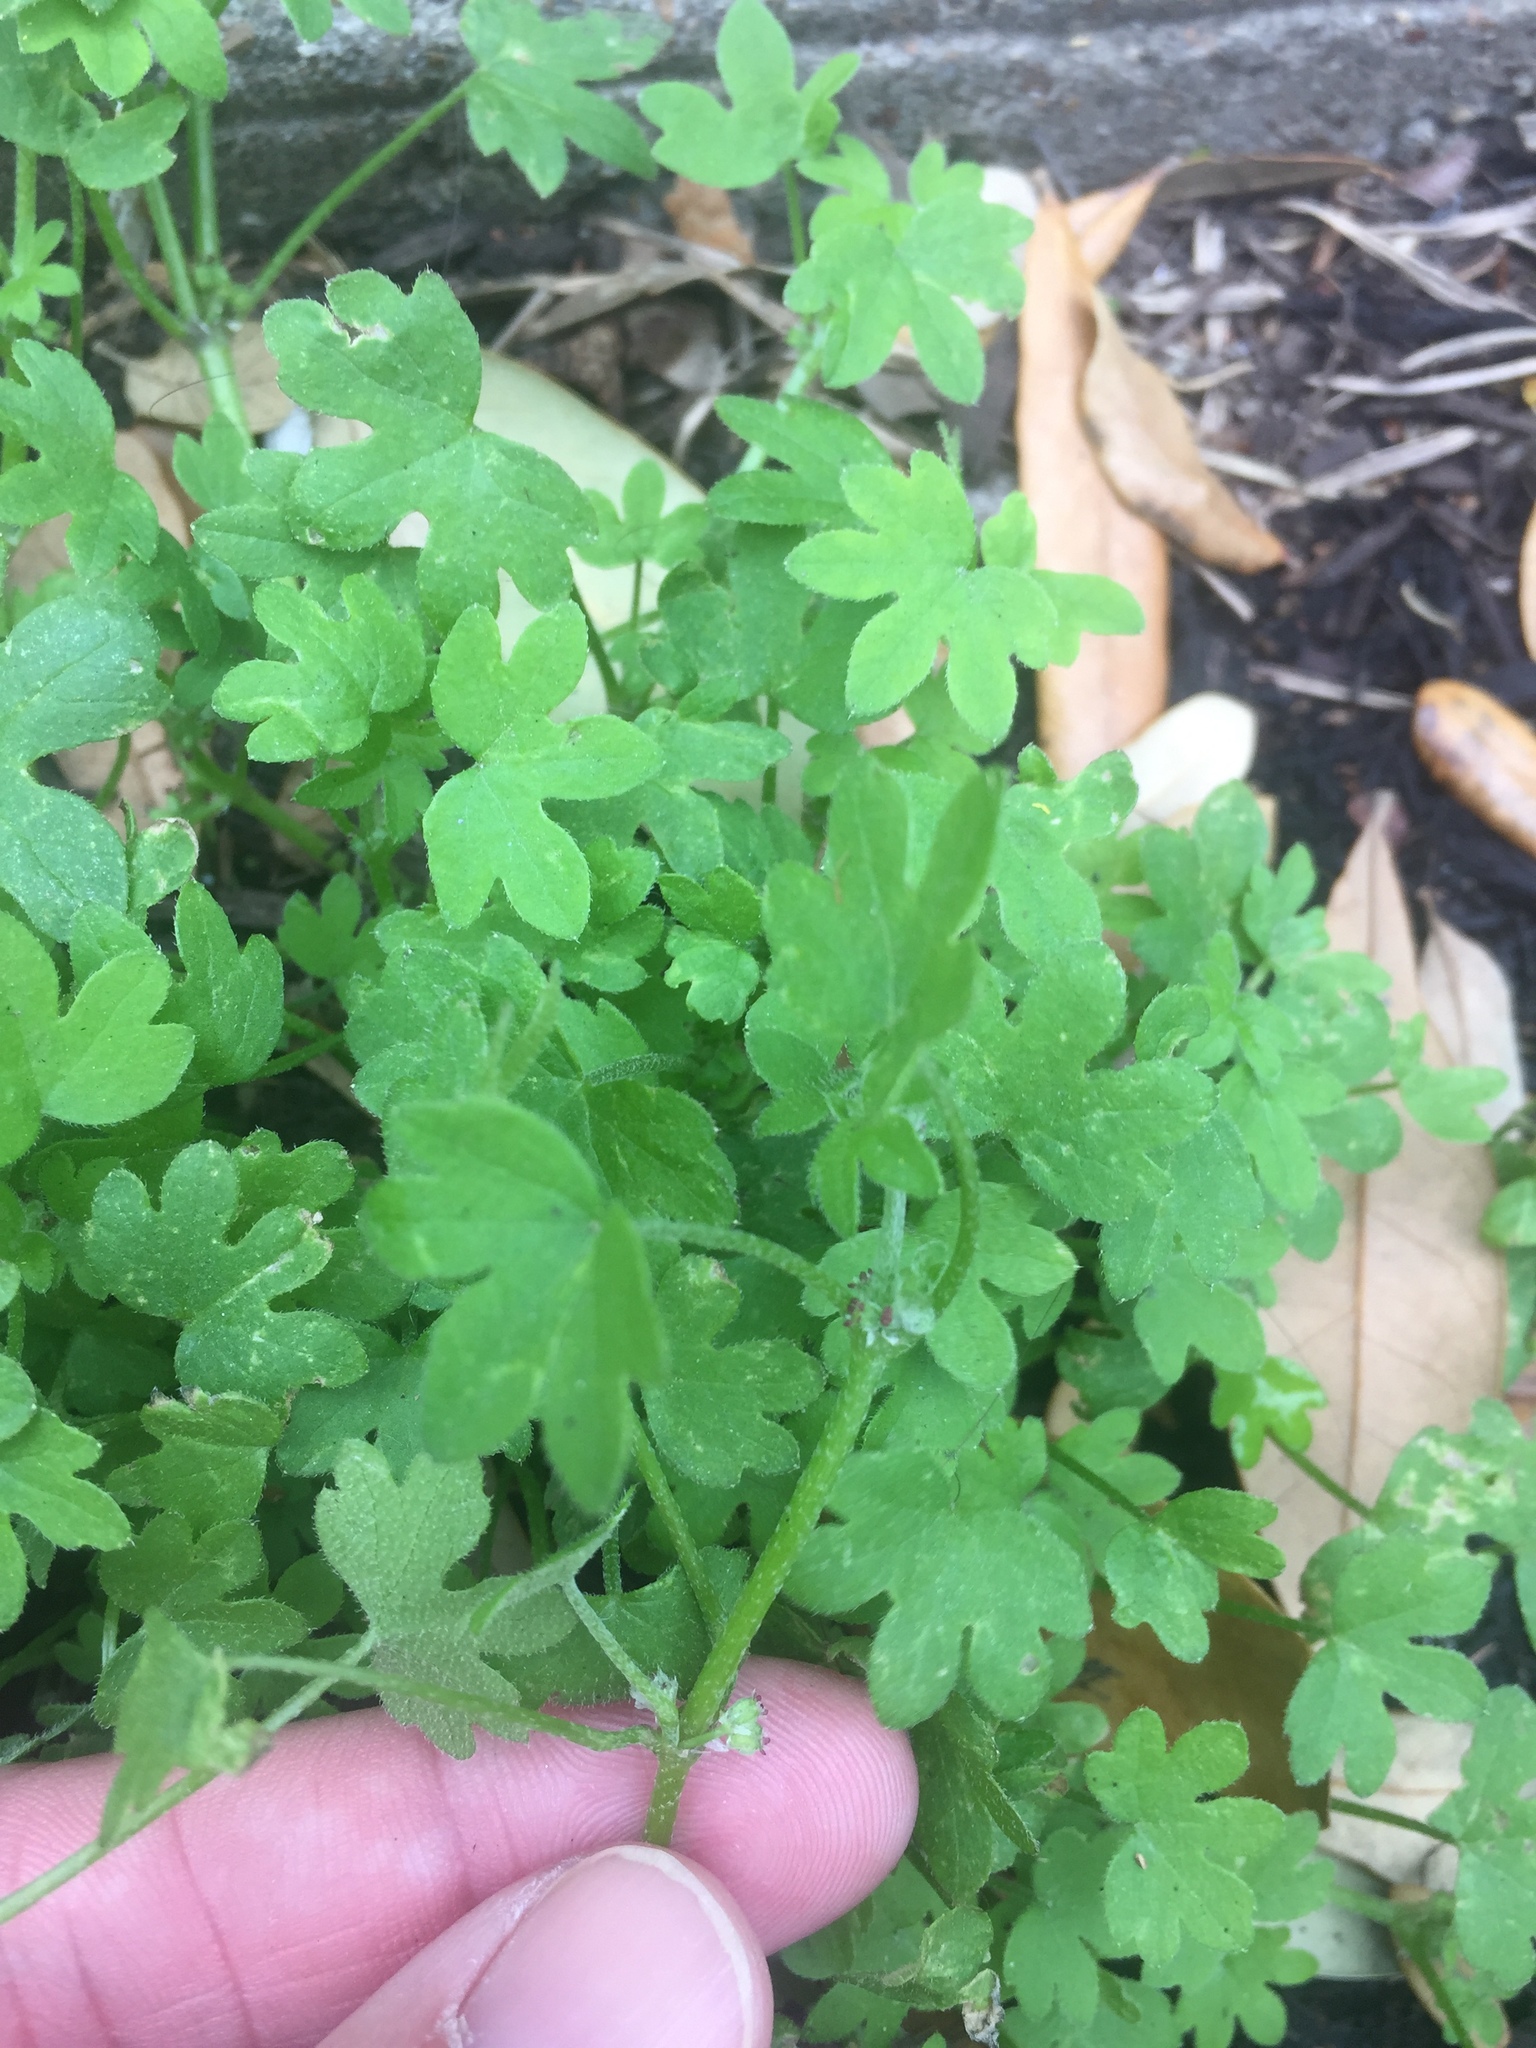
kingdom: Plantae
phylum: Tracheophyta
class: Magnoliopsida
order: Apiales
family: Apiaceae
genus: Bowlesia
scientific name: Bowlesia incana
